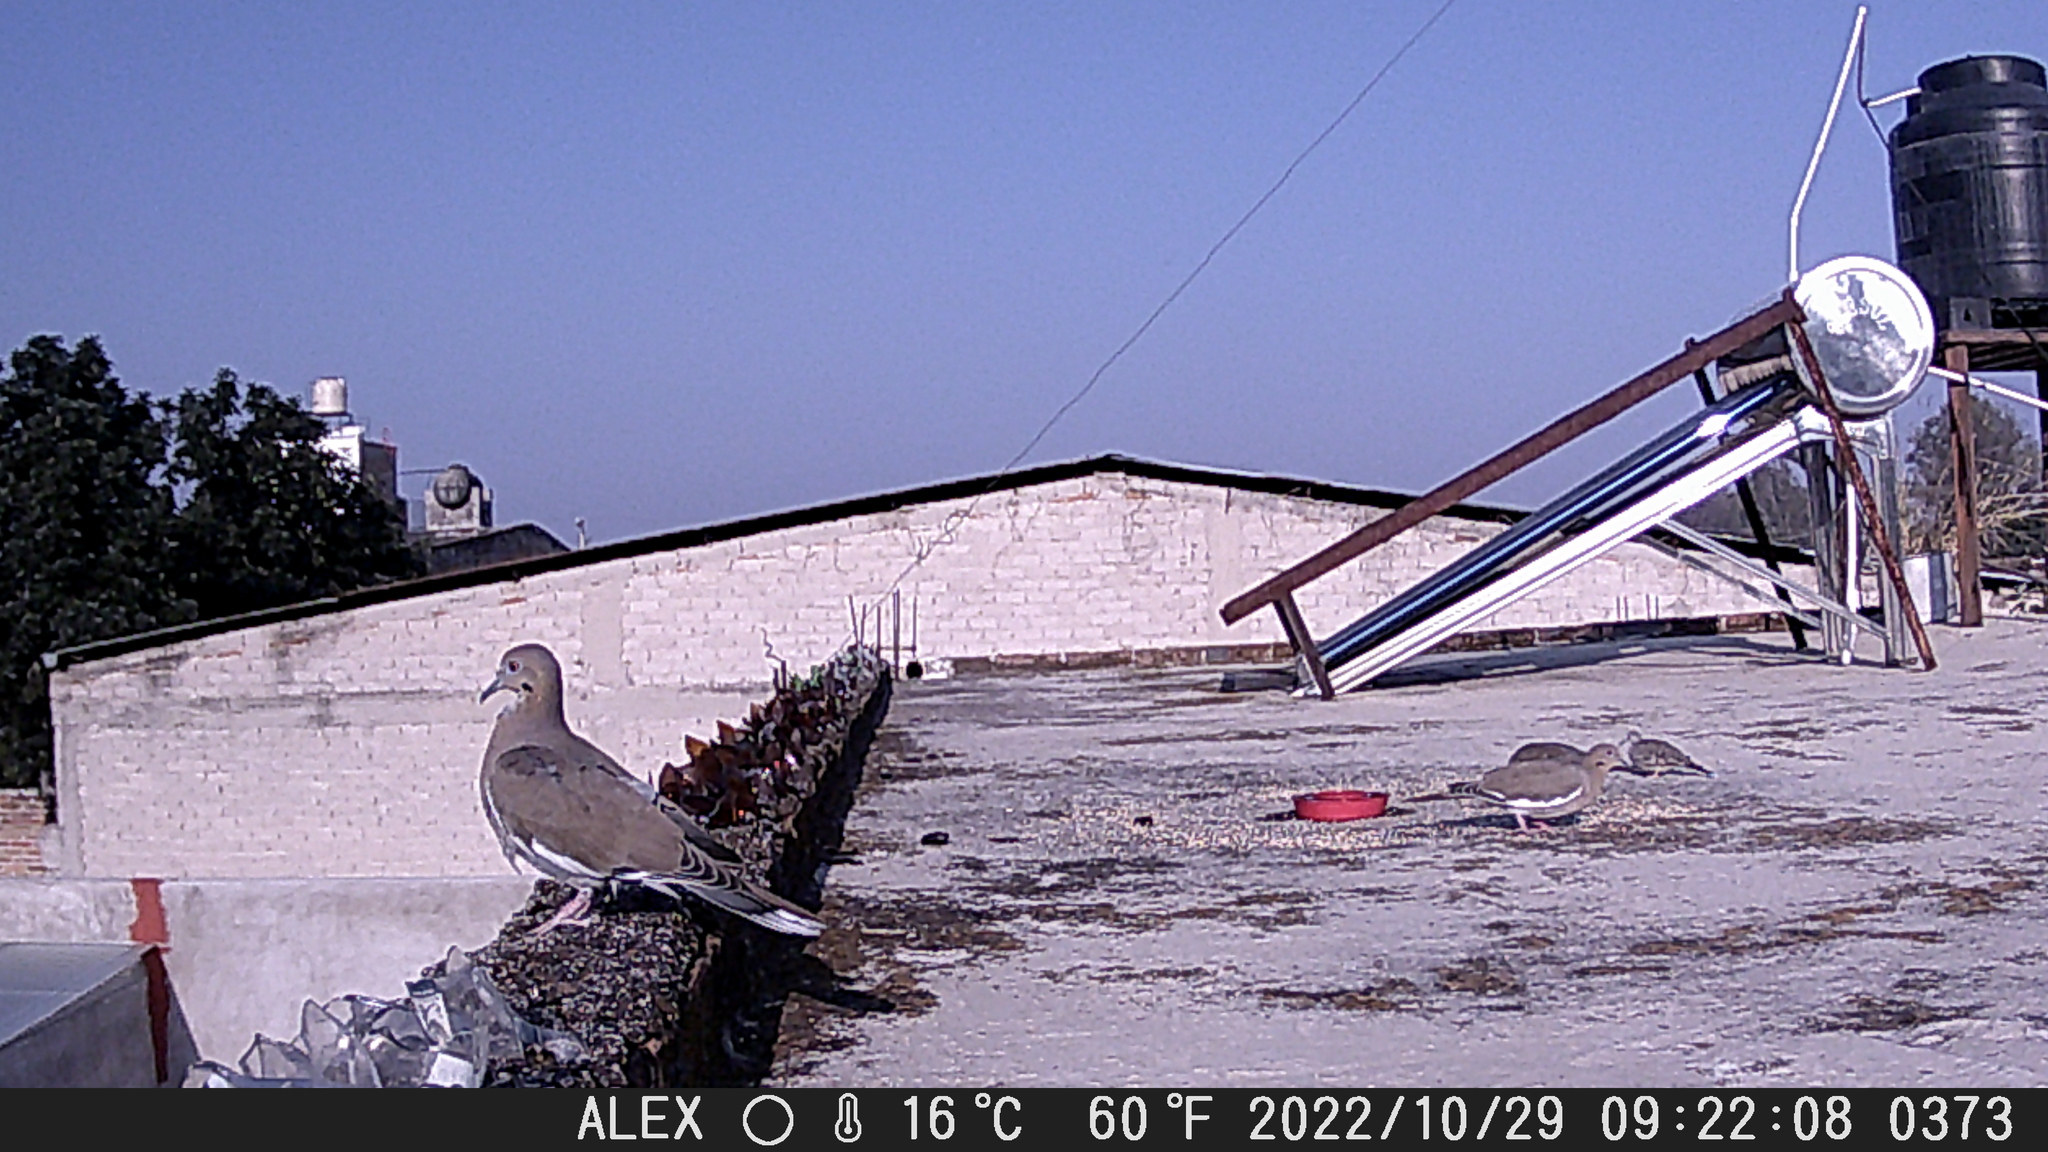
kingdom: Animalia
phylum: Chordata
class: Aves
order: Columbiformes
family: Columbidae
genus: Zenaida
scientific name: Zenaida asiatica
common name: White-winged dove
